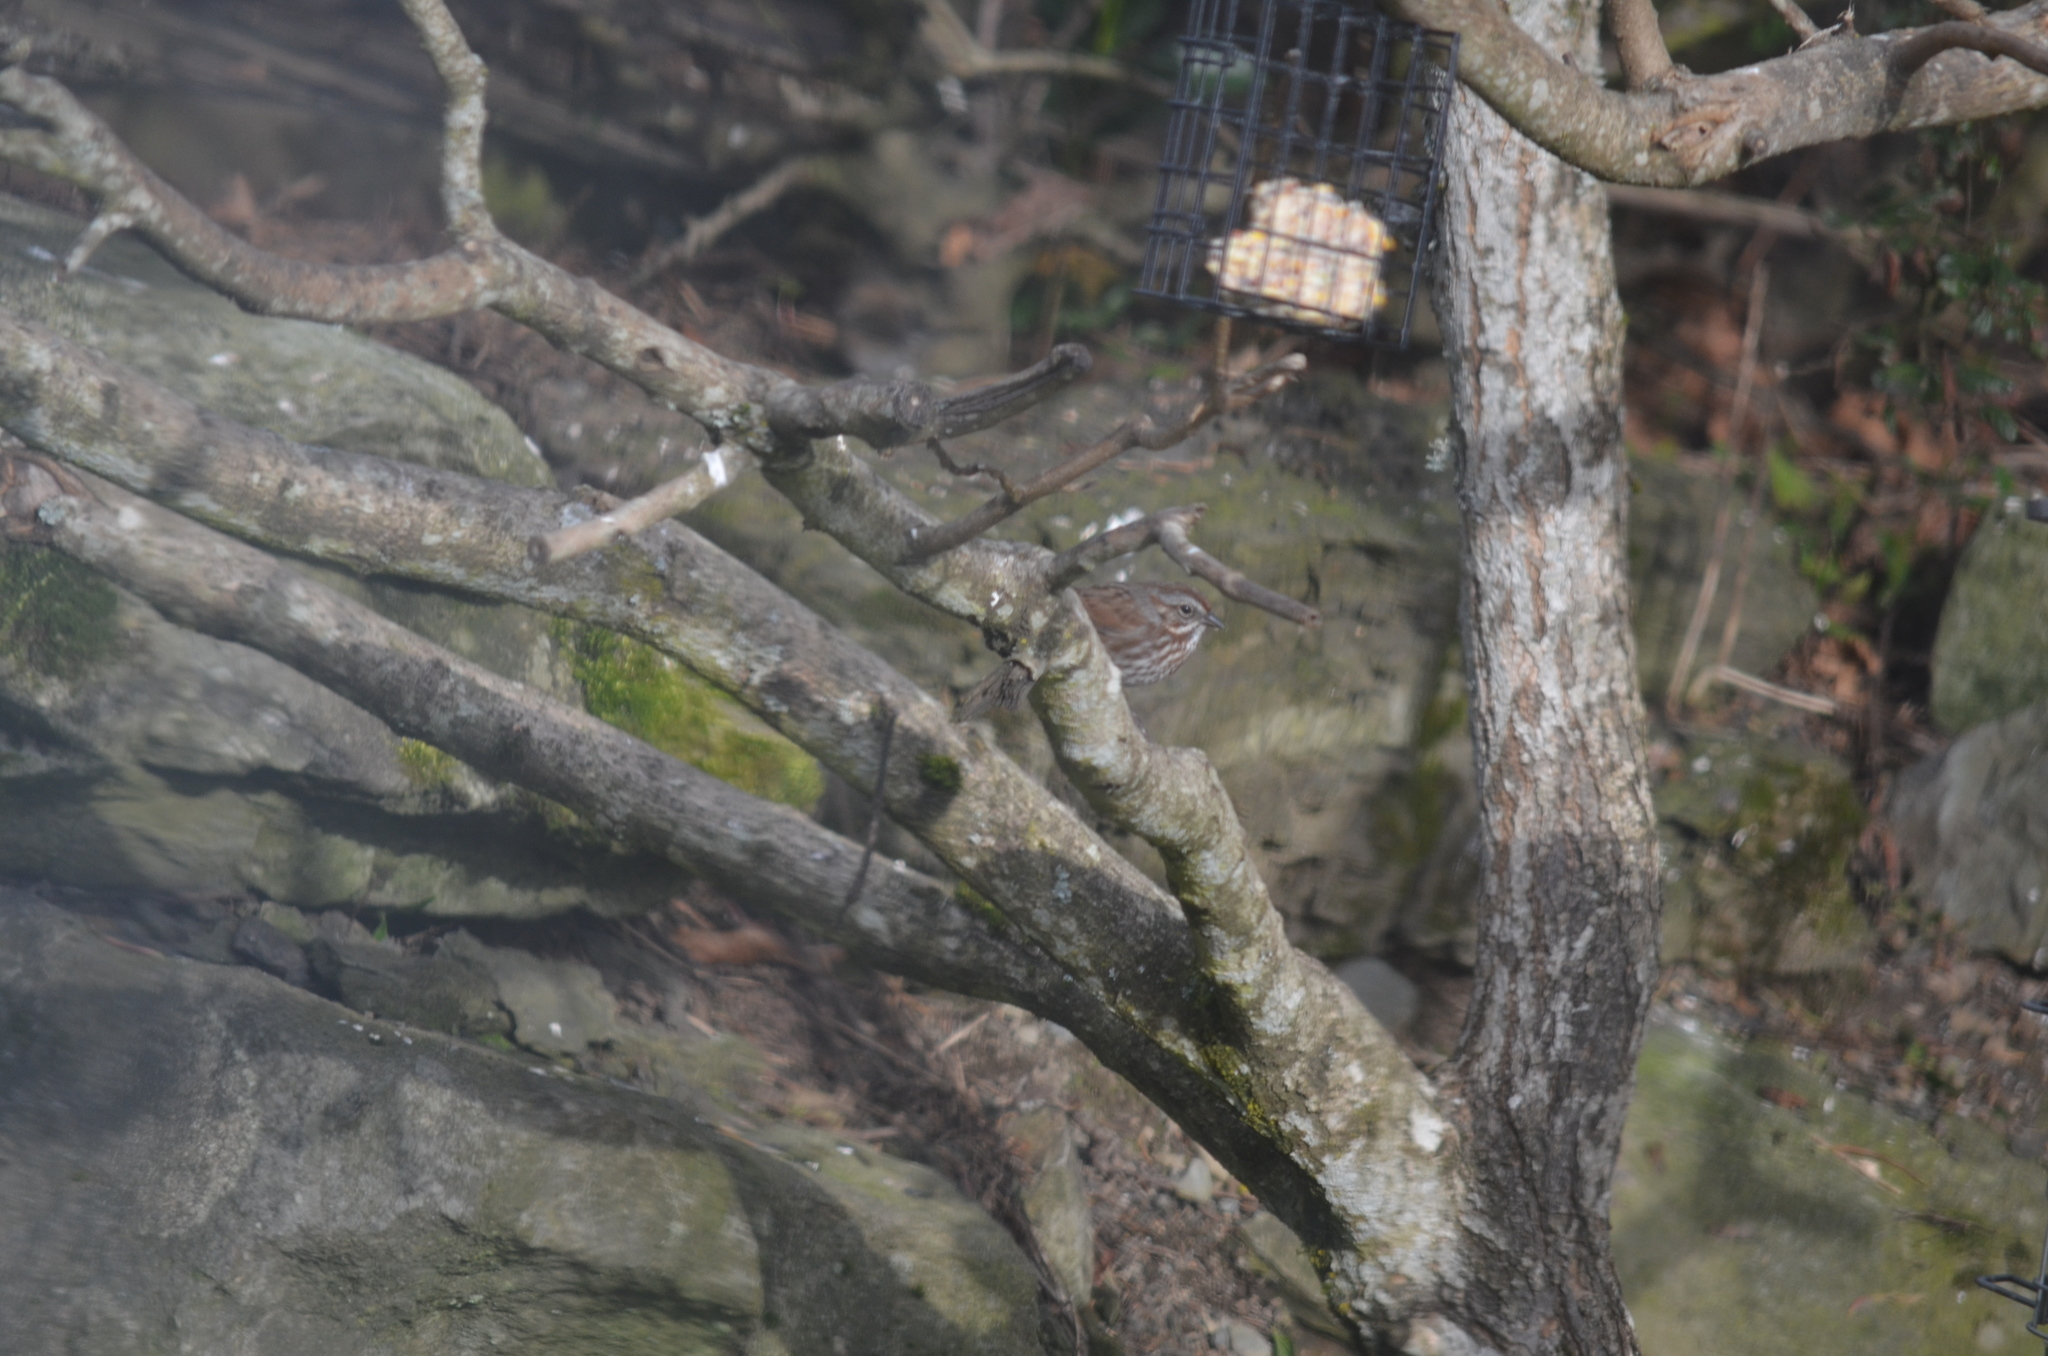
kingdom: Animalia
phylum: Chordata
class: Aves
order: Passeriformes
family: Passerellidae
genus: Melospiza
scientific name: Melospiza melodia
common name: Song sparrow
